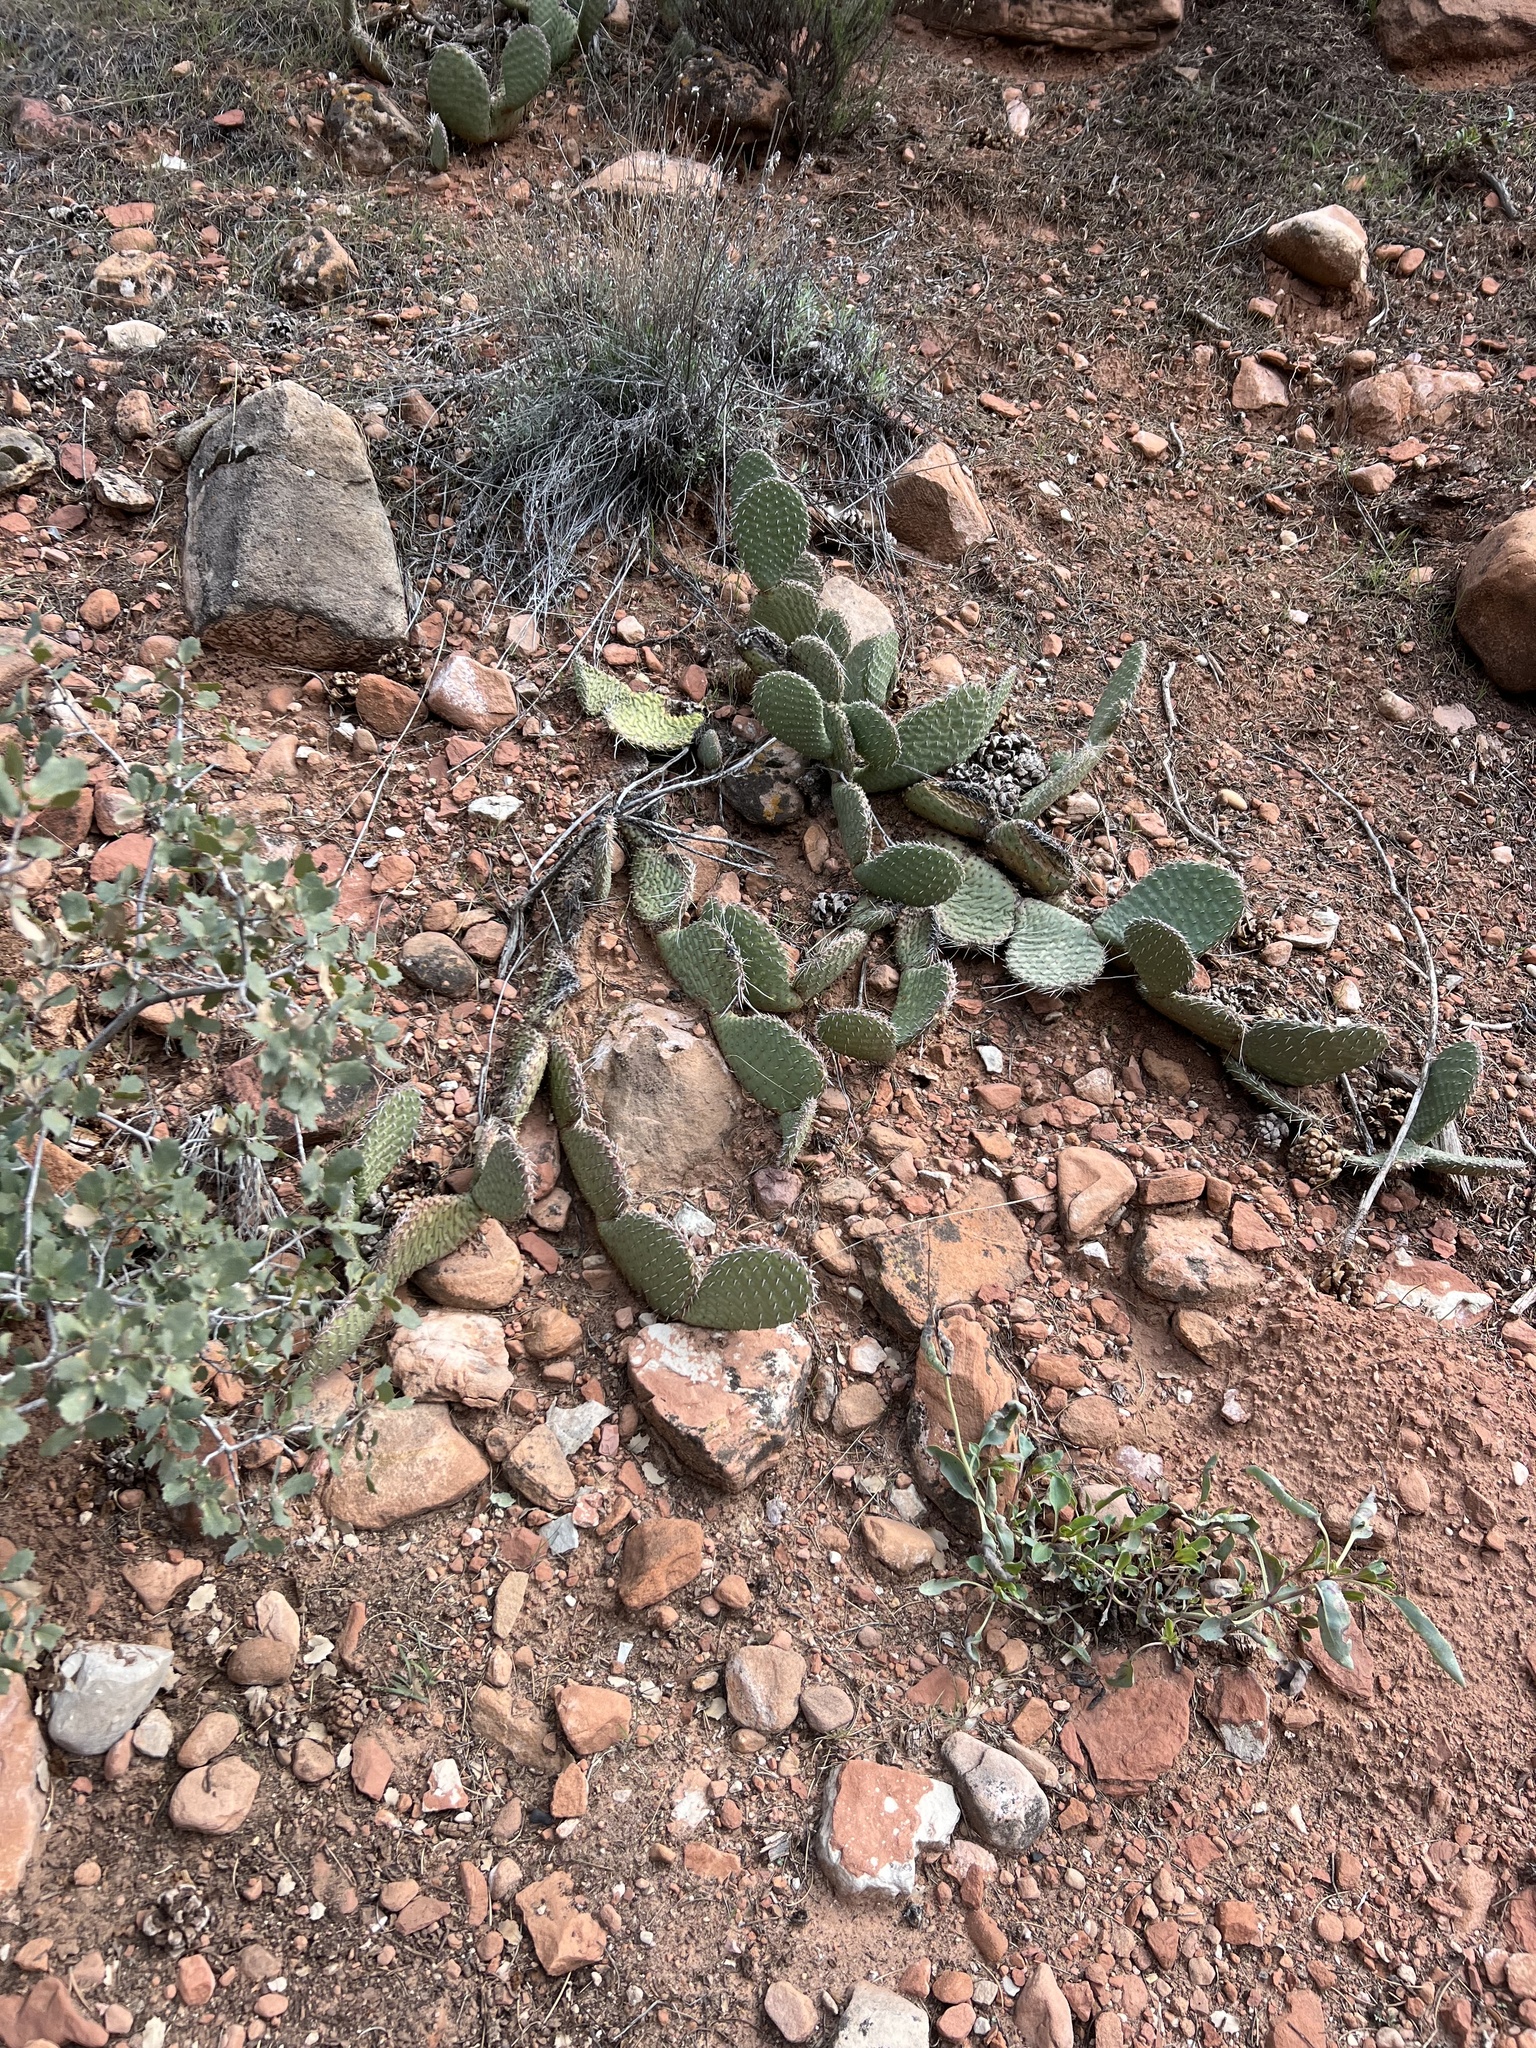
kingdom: Plantae
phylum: Tracheophyta
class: Magnoliopsida
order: Caryophyllales
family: Cactaceae
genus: Opuntia
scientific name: Opuntia aurea
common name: Golden prickly-pear
